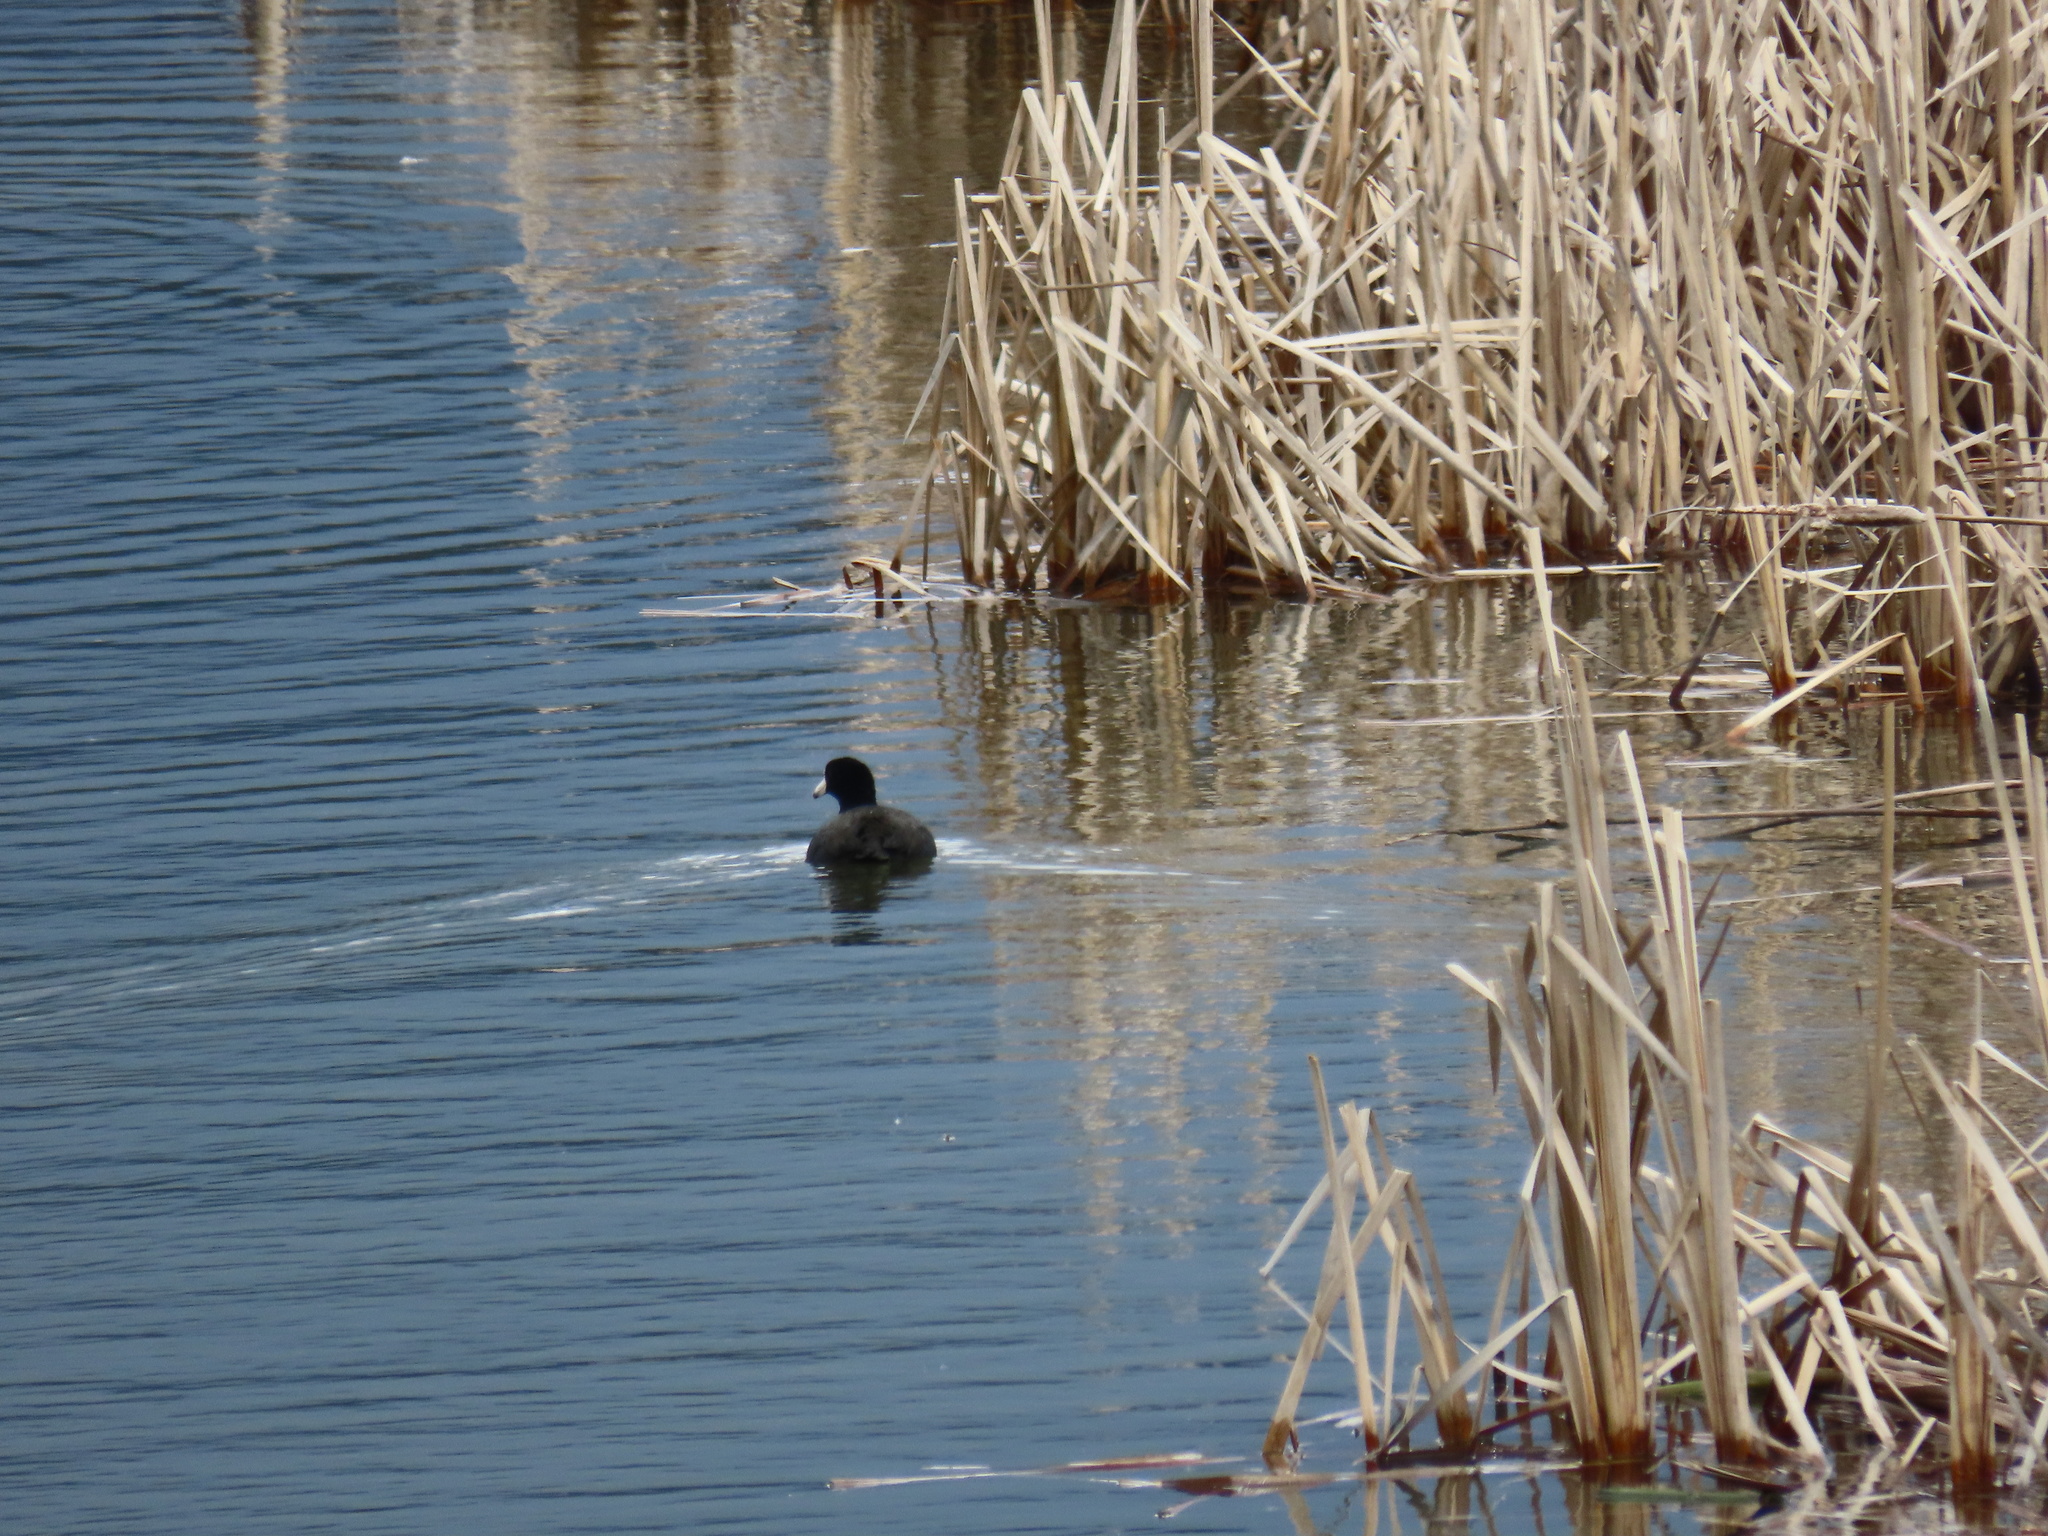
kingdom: Animalia
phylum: Chordata
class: Aves
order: Gruiformes
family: Rallidae
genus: Fulica
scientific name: Fulica americana
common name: American coot
